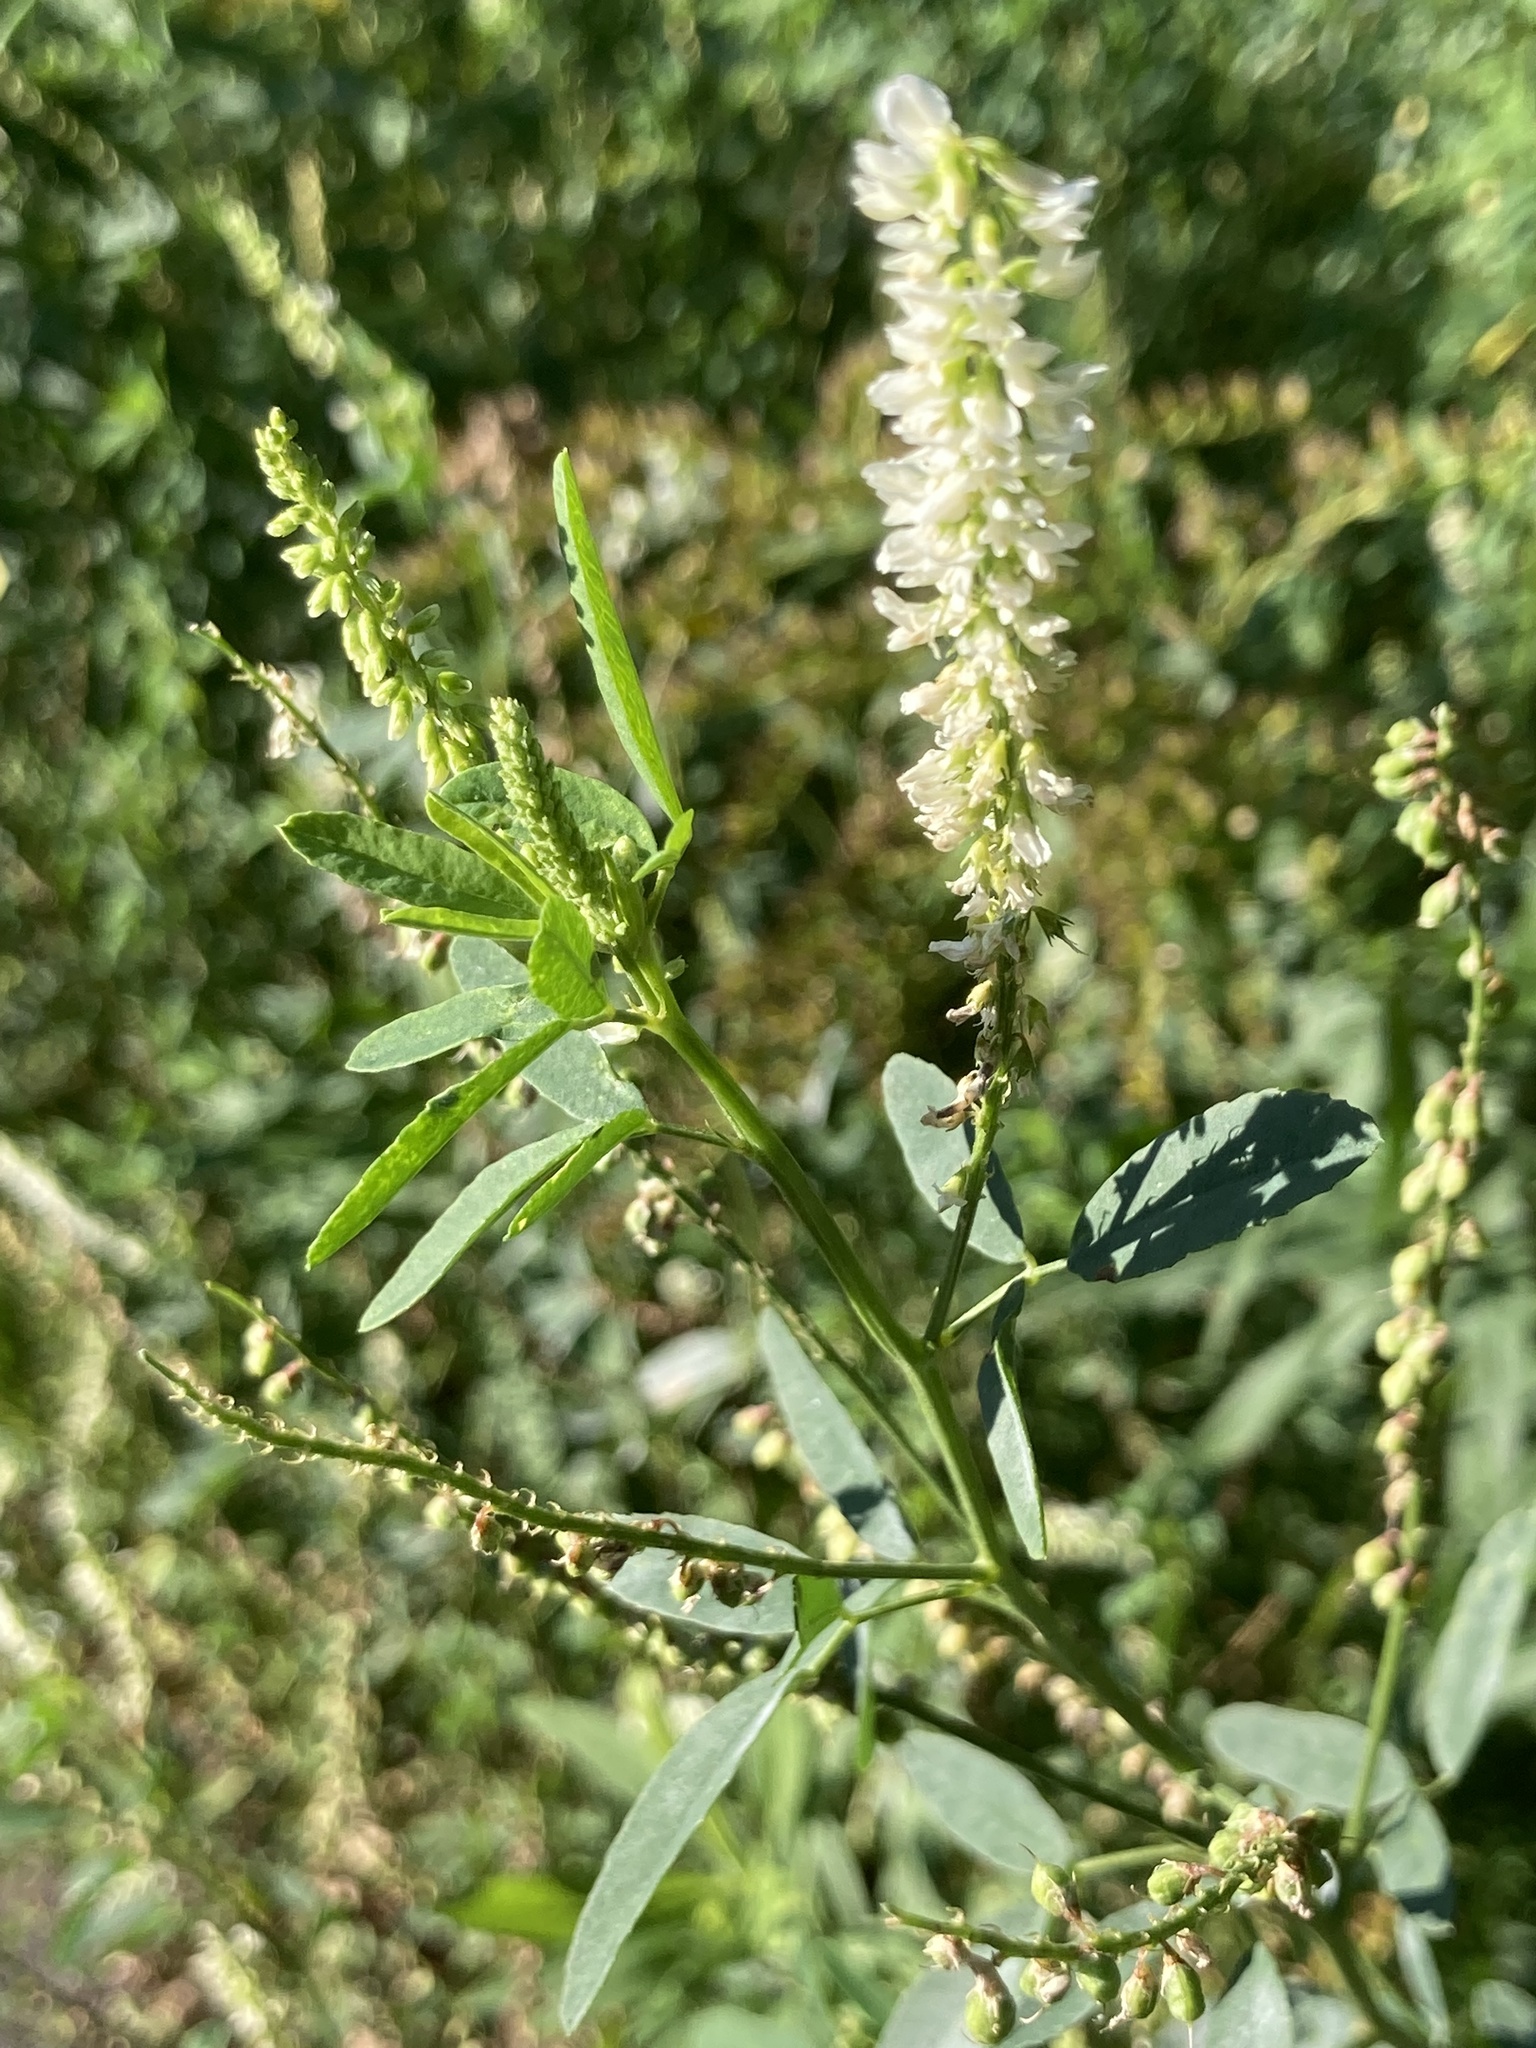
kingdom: Plantae
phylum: Tracheophyta
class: Magnoliopsida
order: Fabales
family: Fabaceae
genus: Melilotus
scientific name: Melilotus albus
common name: White melilot
